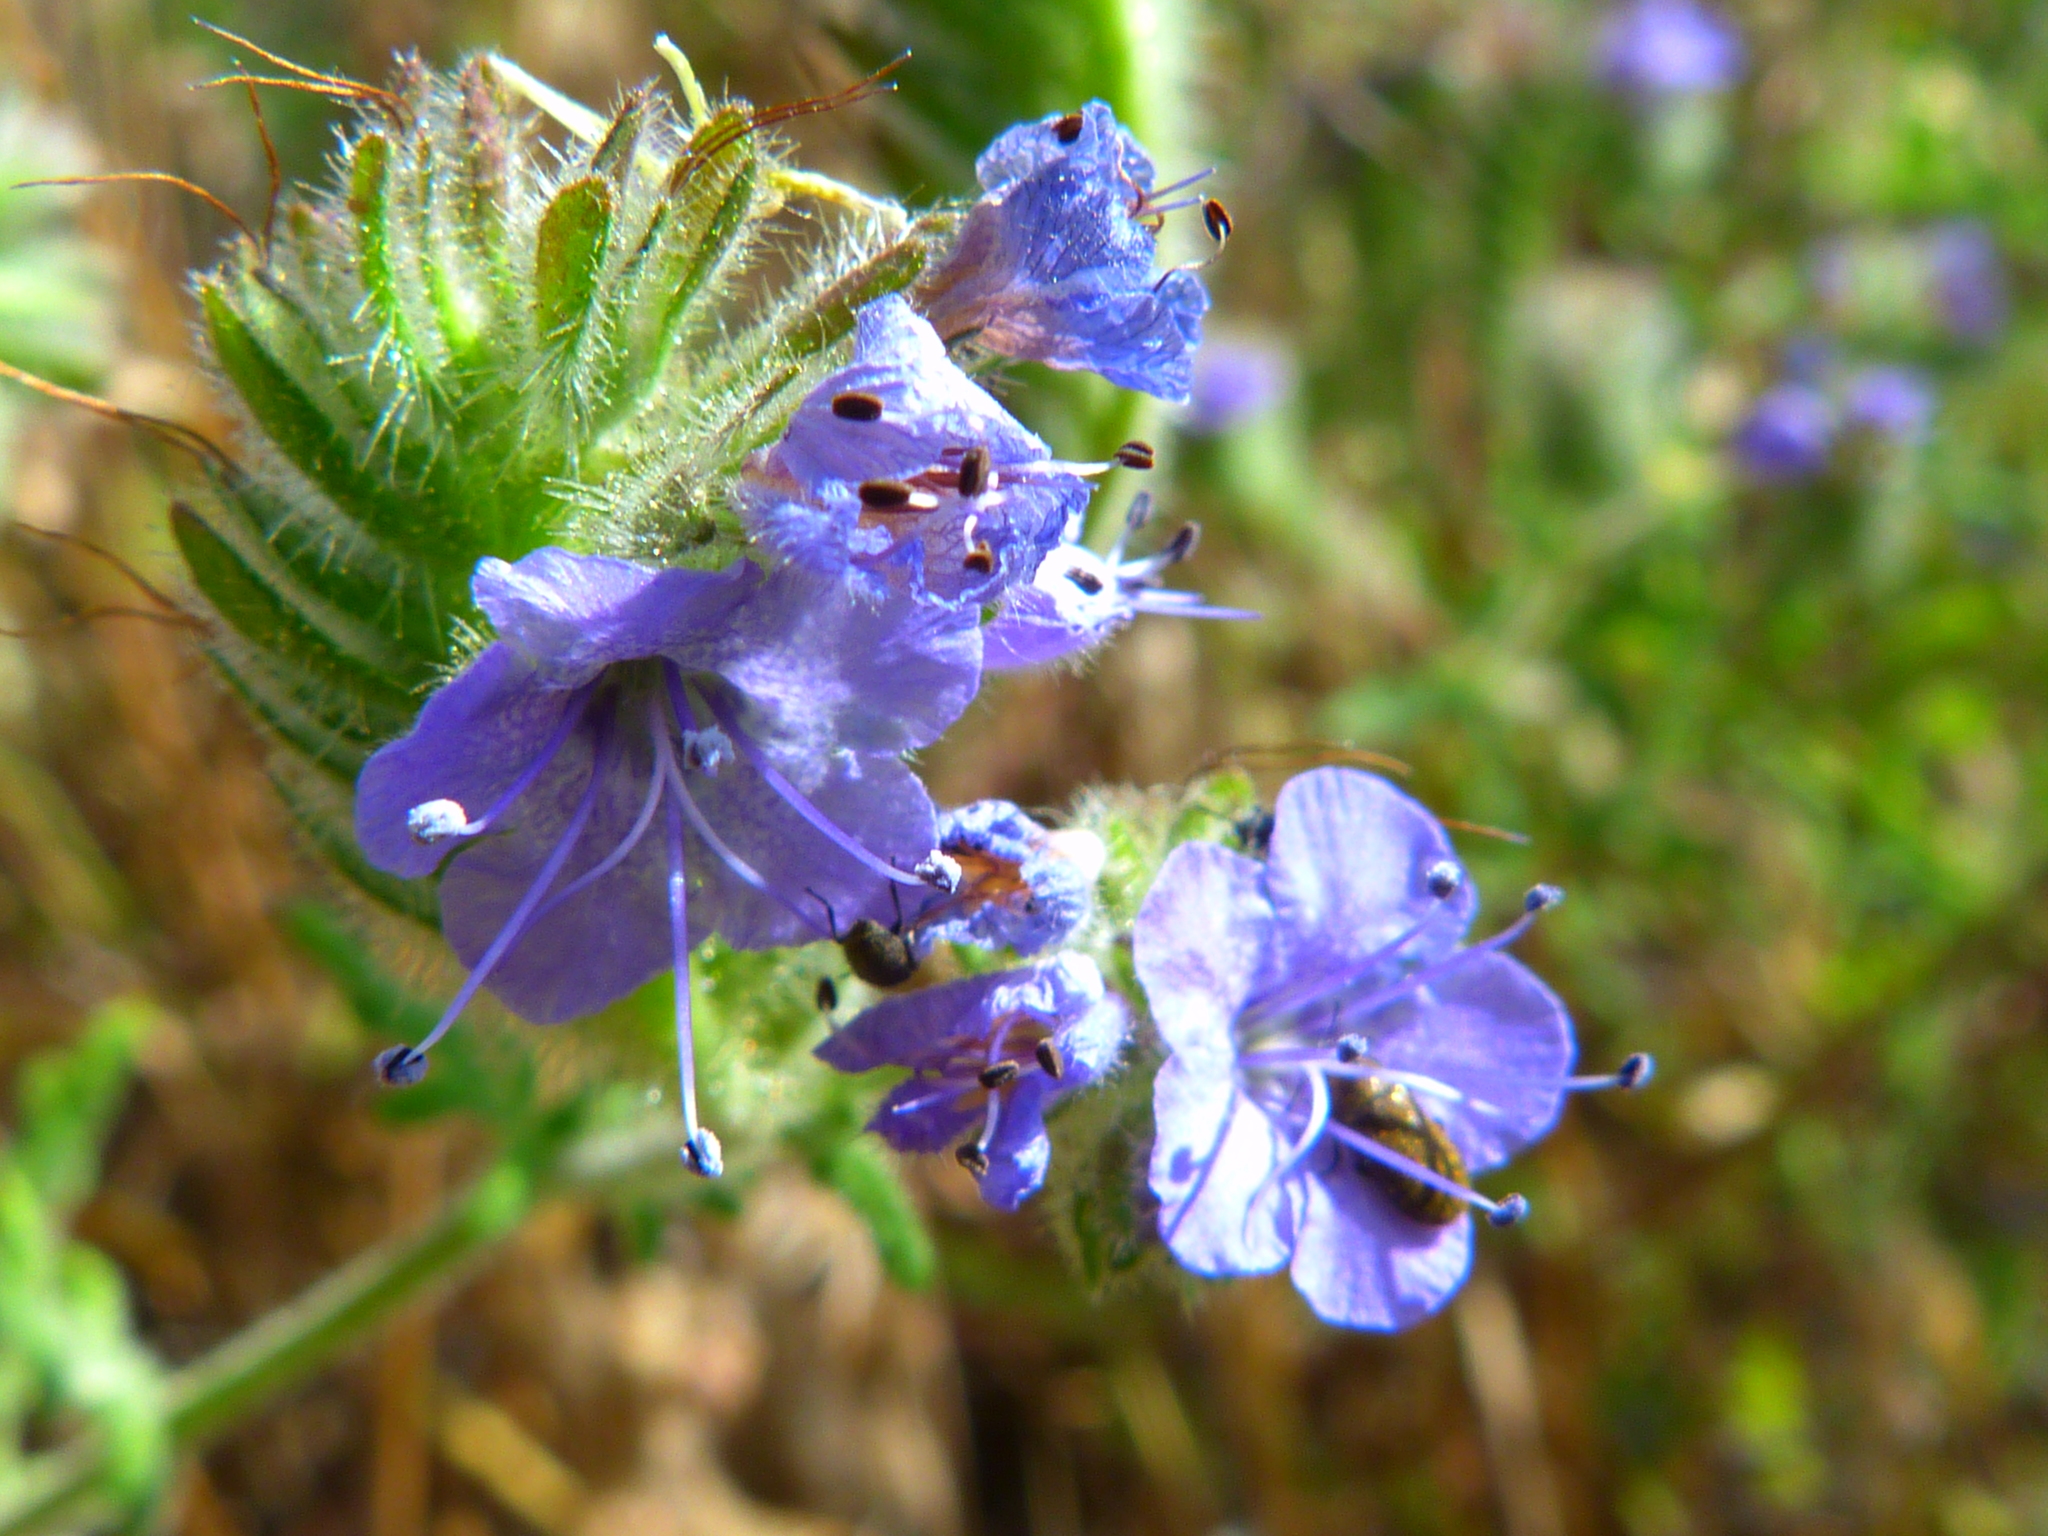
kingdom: Plantae
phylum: Tracheophyta
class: Magnoliopsida
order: Boraginales
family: Hydrophyllaceae
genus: Phacelia
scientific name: Phacelia distans
